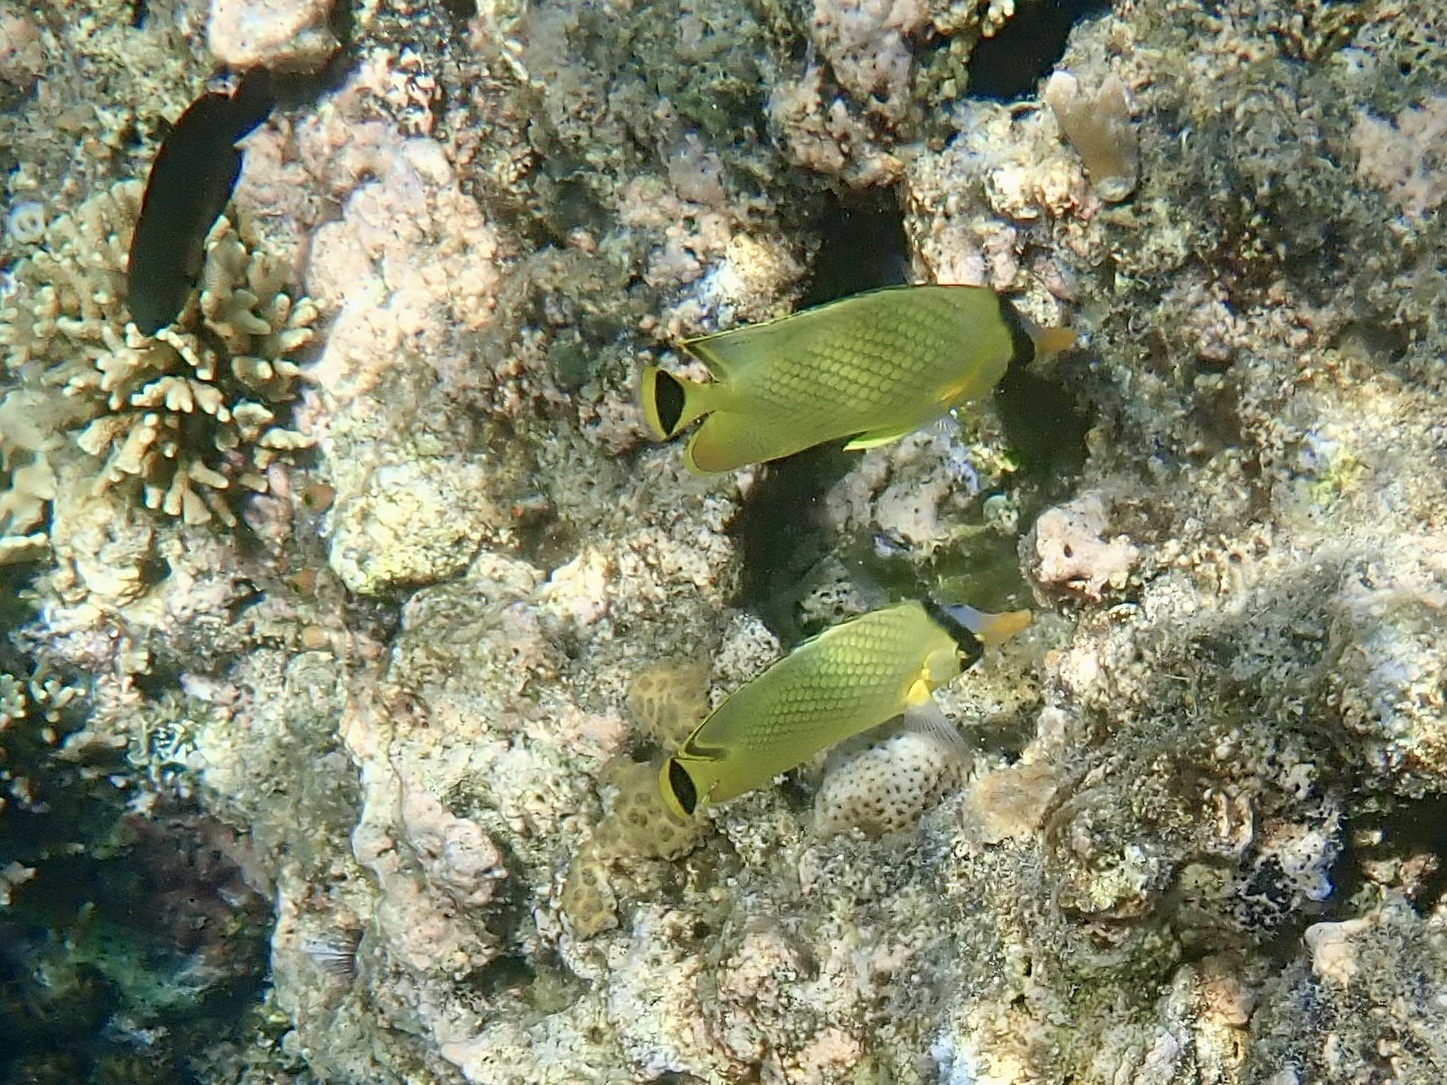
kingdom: Animalia
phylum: Chordata
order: Perciformes
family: Chaetodontidae
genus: Chaetodon
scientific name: Chaetodon rafflesii
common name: Latticed butterflyfish
